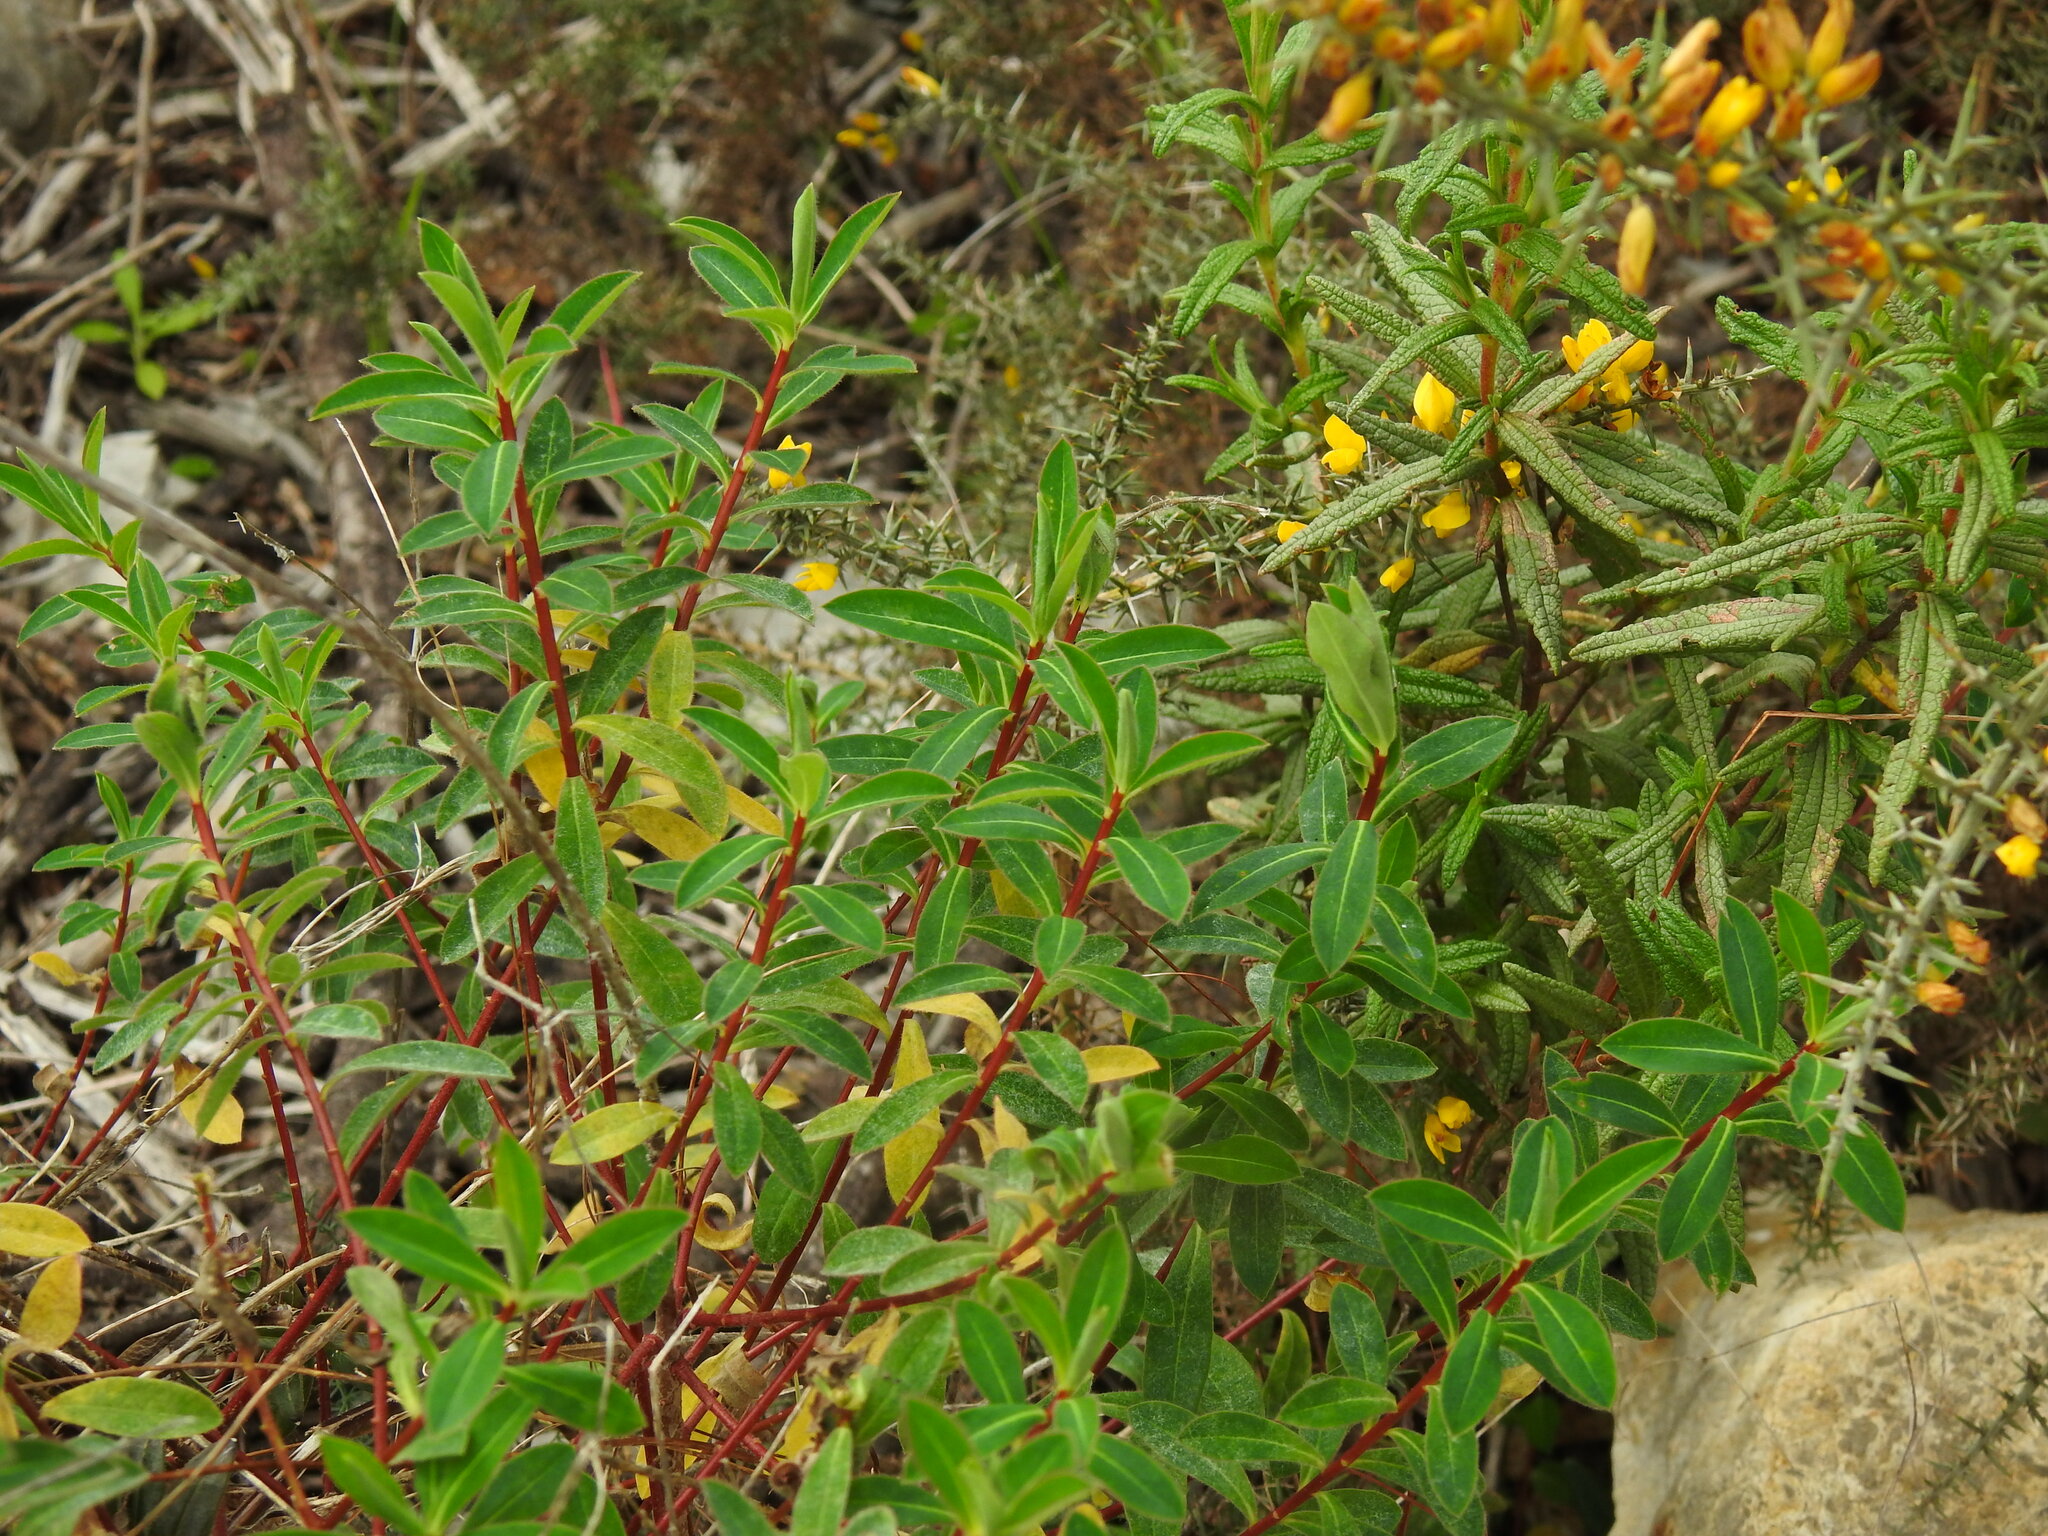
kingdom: Plantae
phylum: Tracheophyta
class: Magnoliopsida
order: Malpighiales
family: Euphorbiaceae
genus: Euphorbia
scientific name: Euphorbia clementei
